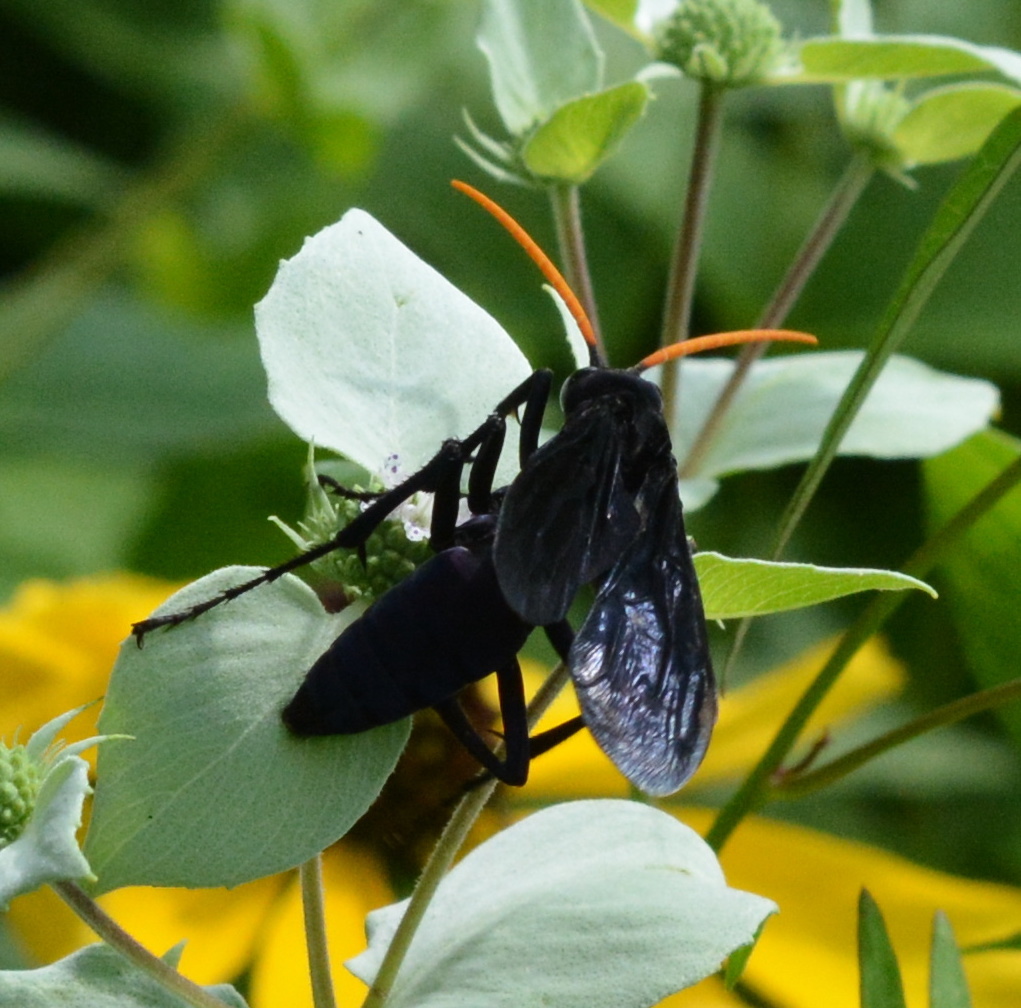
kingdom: Animalia
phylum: Arthropoda
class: Insecta
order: Hymenoptera
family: Pompilidae
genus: Pepsis
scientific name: Pepsis menechma
